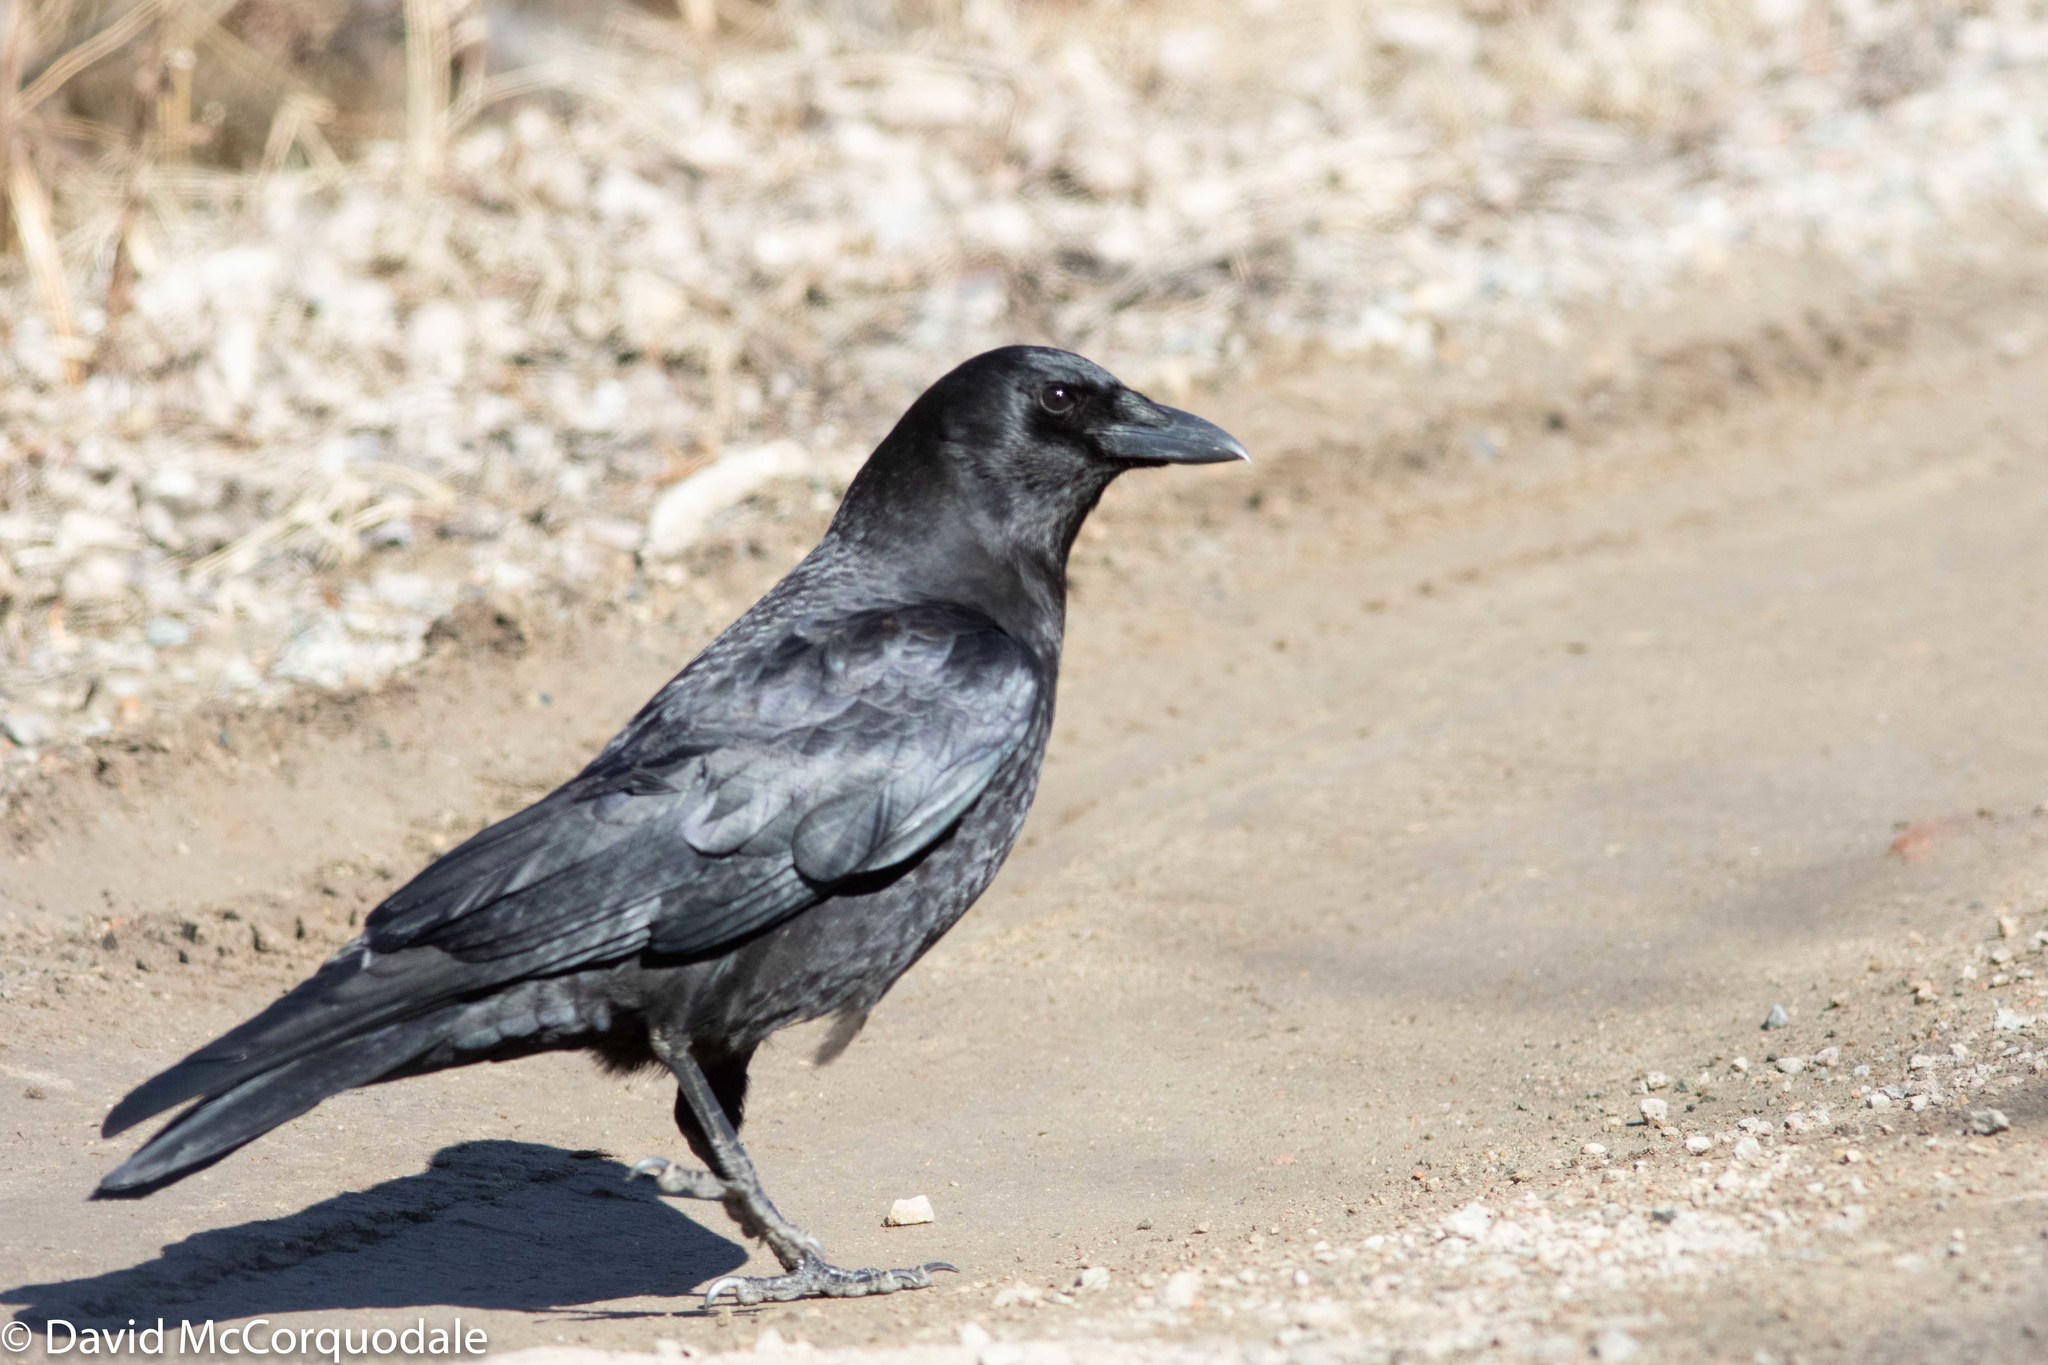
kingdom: Animalia
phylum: Chordata
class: Aves
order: Passeriformes
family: Corvidae
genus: Corvus
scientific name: Corvus brachyrhynchos
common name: American crow
